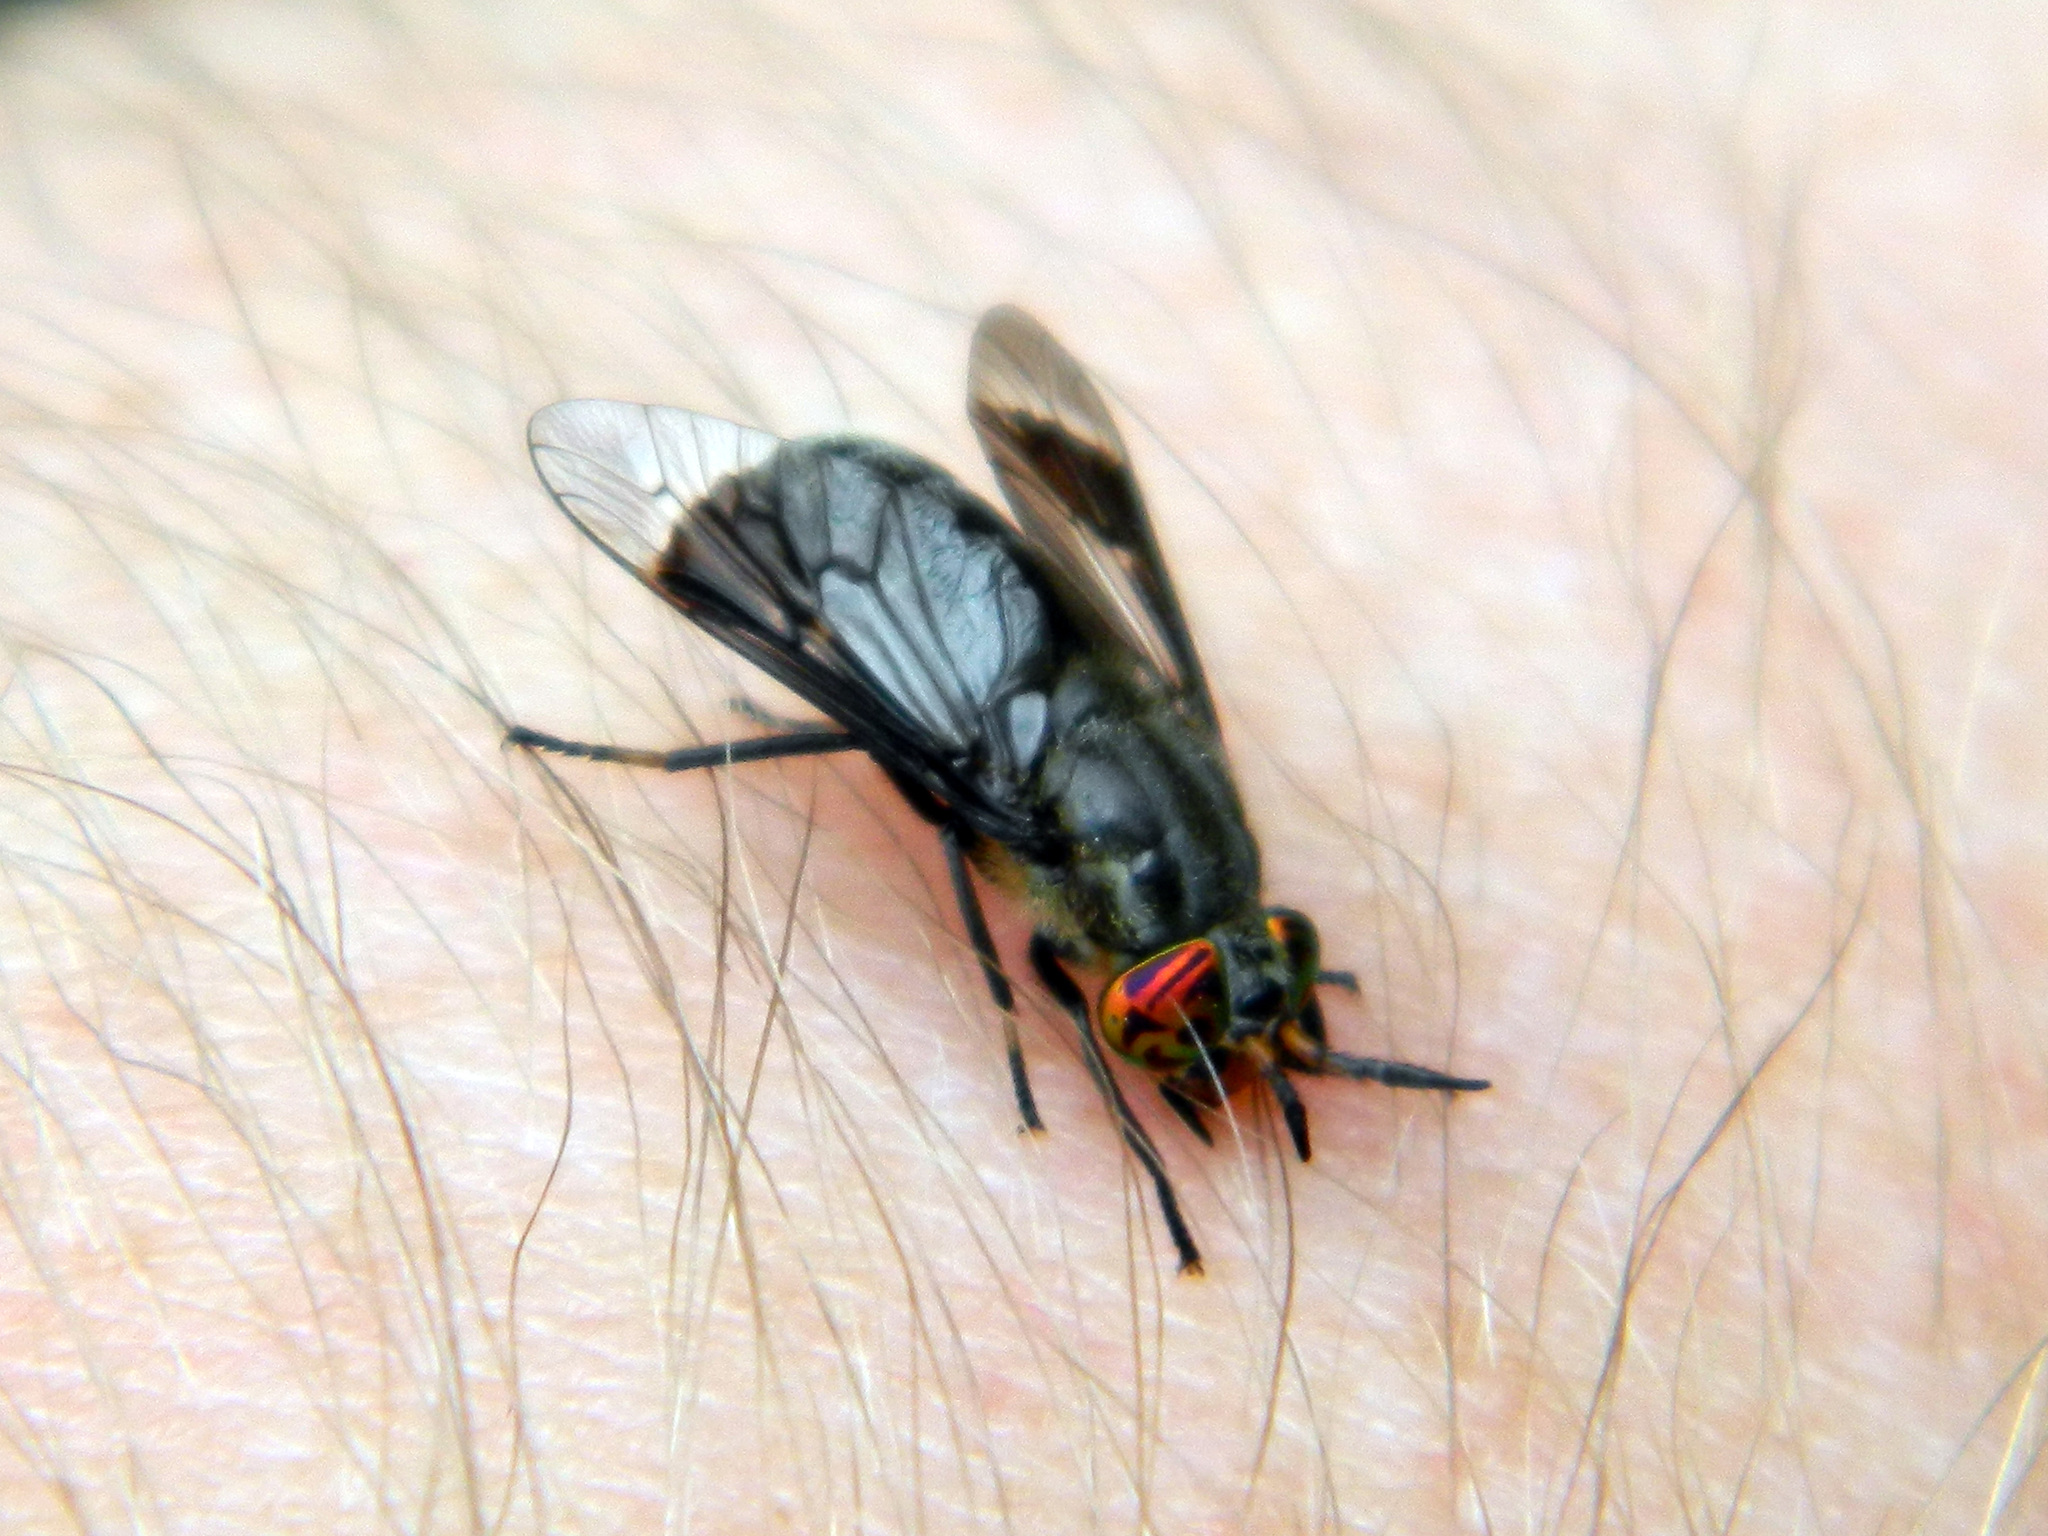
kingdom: Animalia
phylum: Arthropoda
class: Insecta
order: Diptera
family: Tabanidae
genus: Chrysops
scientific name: Chrysops niger
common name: Black deer fly
